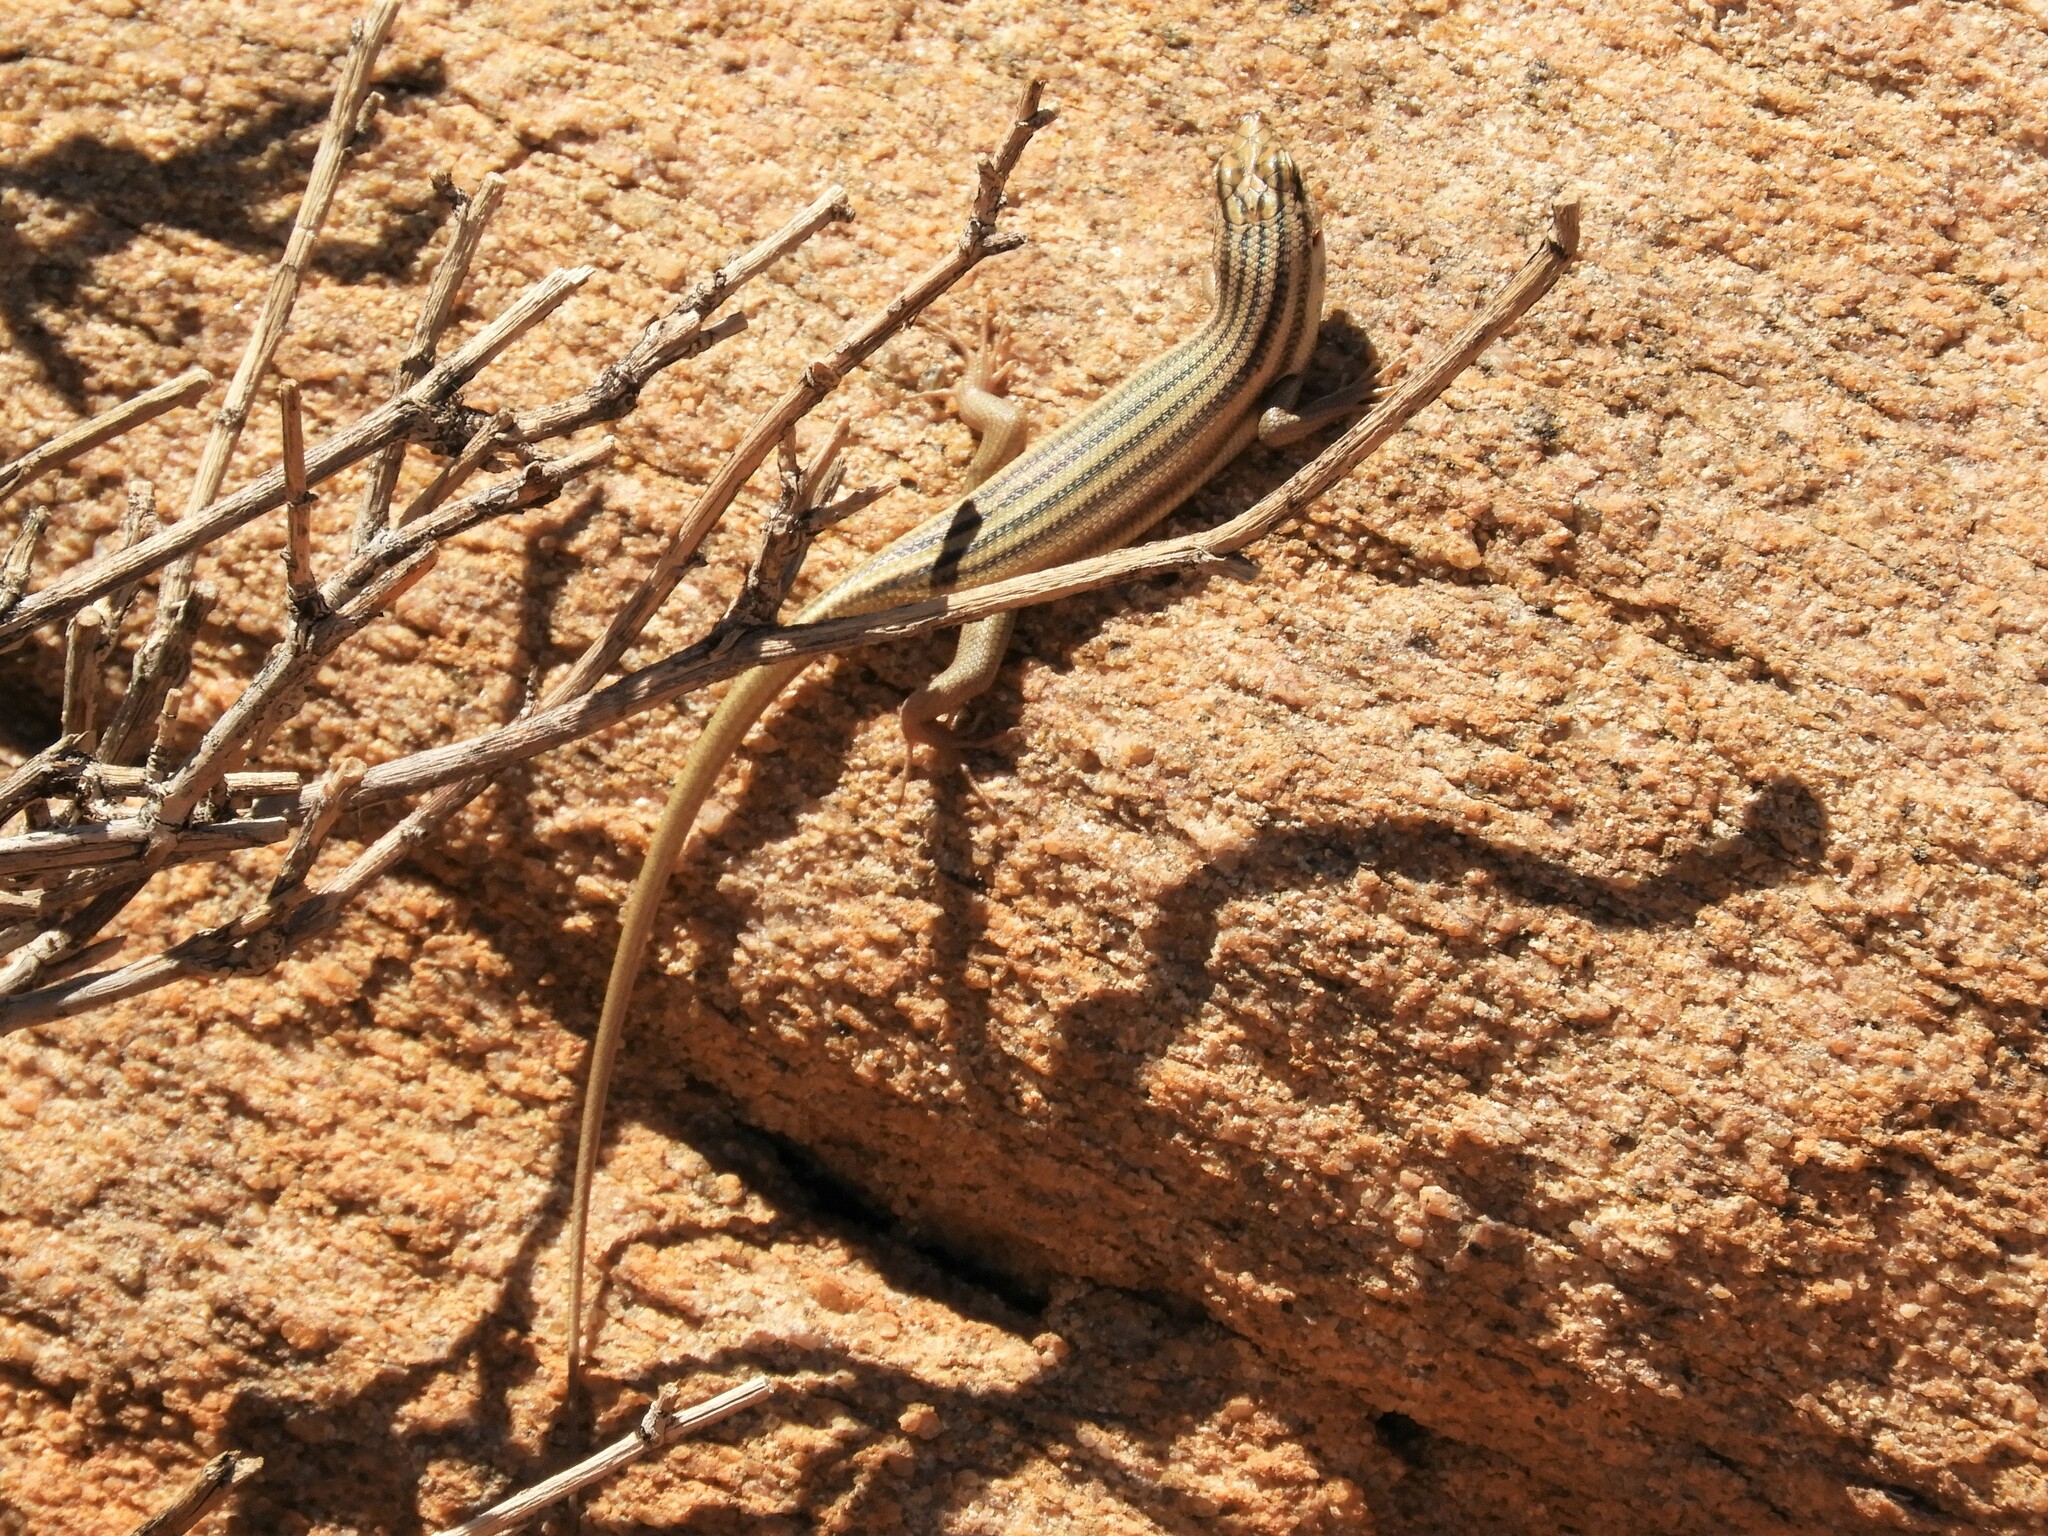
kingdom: Animalia
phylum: Chordata
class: Squamata
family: Scincidae
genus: Trachylepis
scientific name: Trachylepis sulcata
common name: Western rock skink
